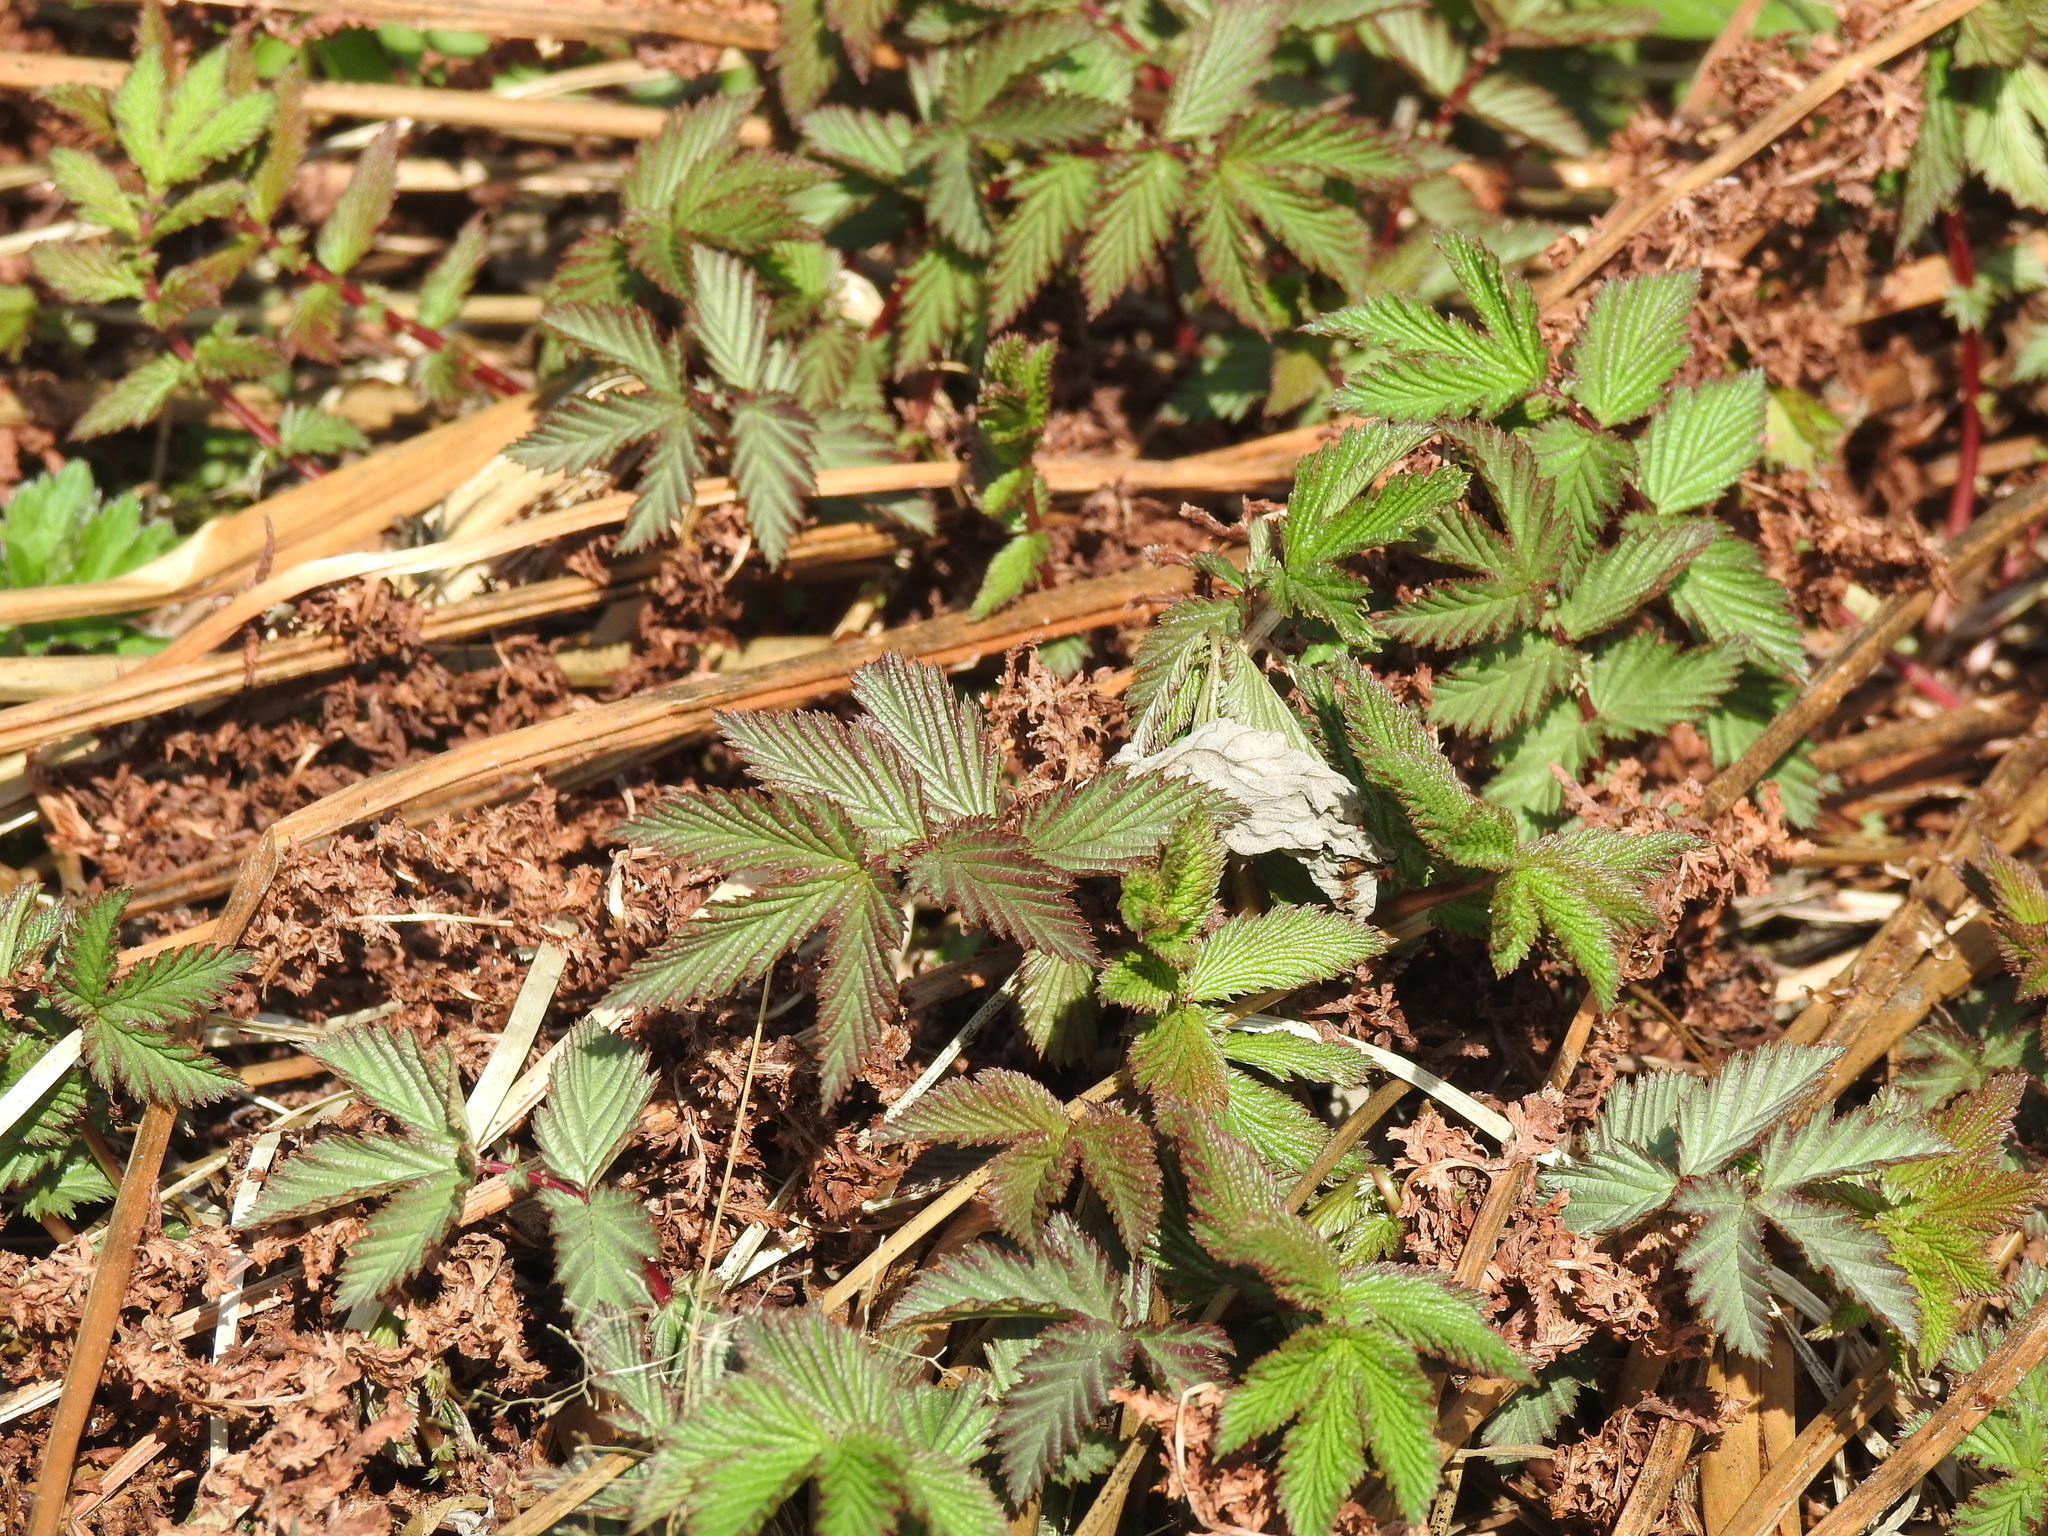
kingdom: Plantae
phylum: Tracheophyta
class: Magnoliopsida
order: Rosales
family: Rosaceae
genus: Filipendula
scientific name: Filipendula ulmaria
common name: Meadowsweet
